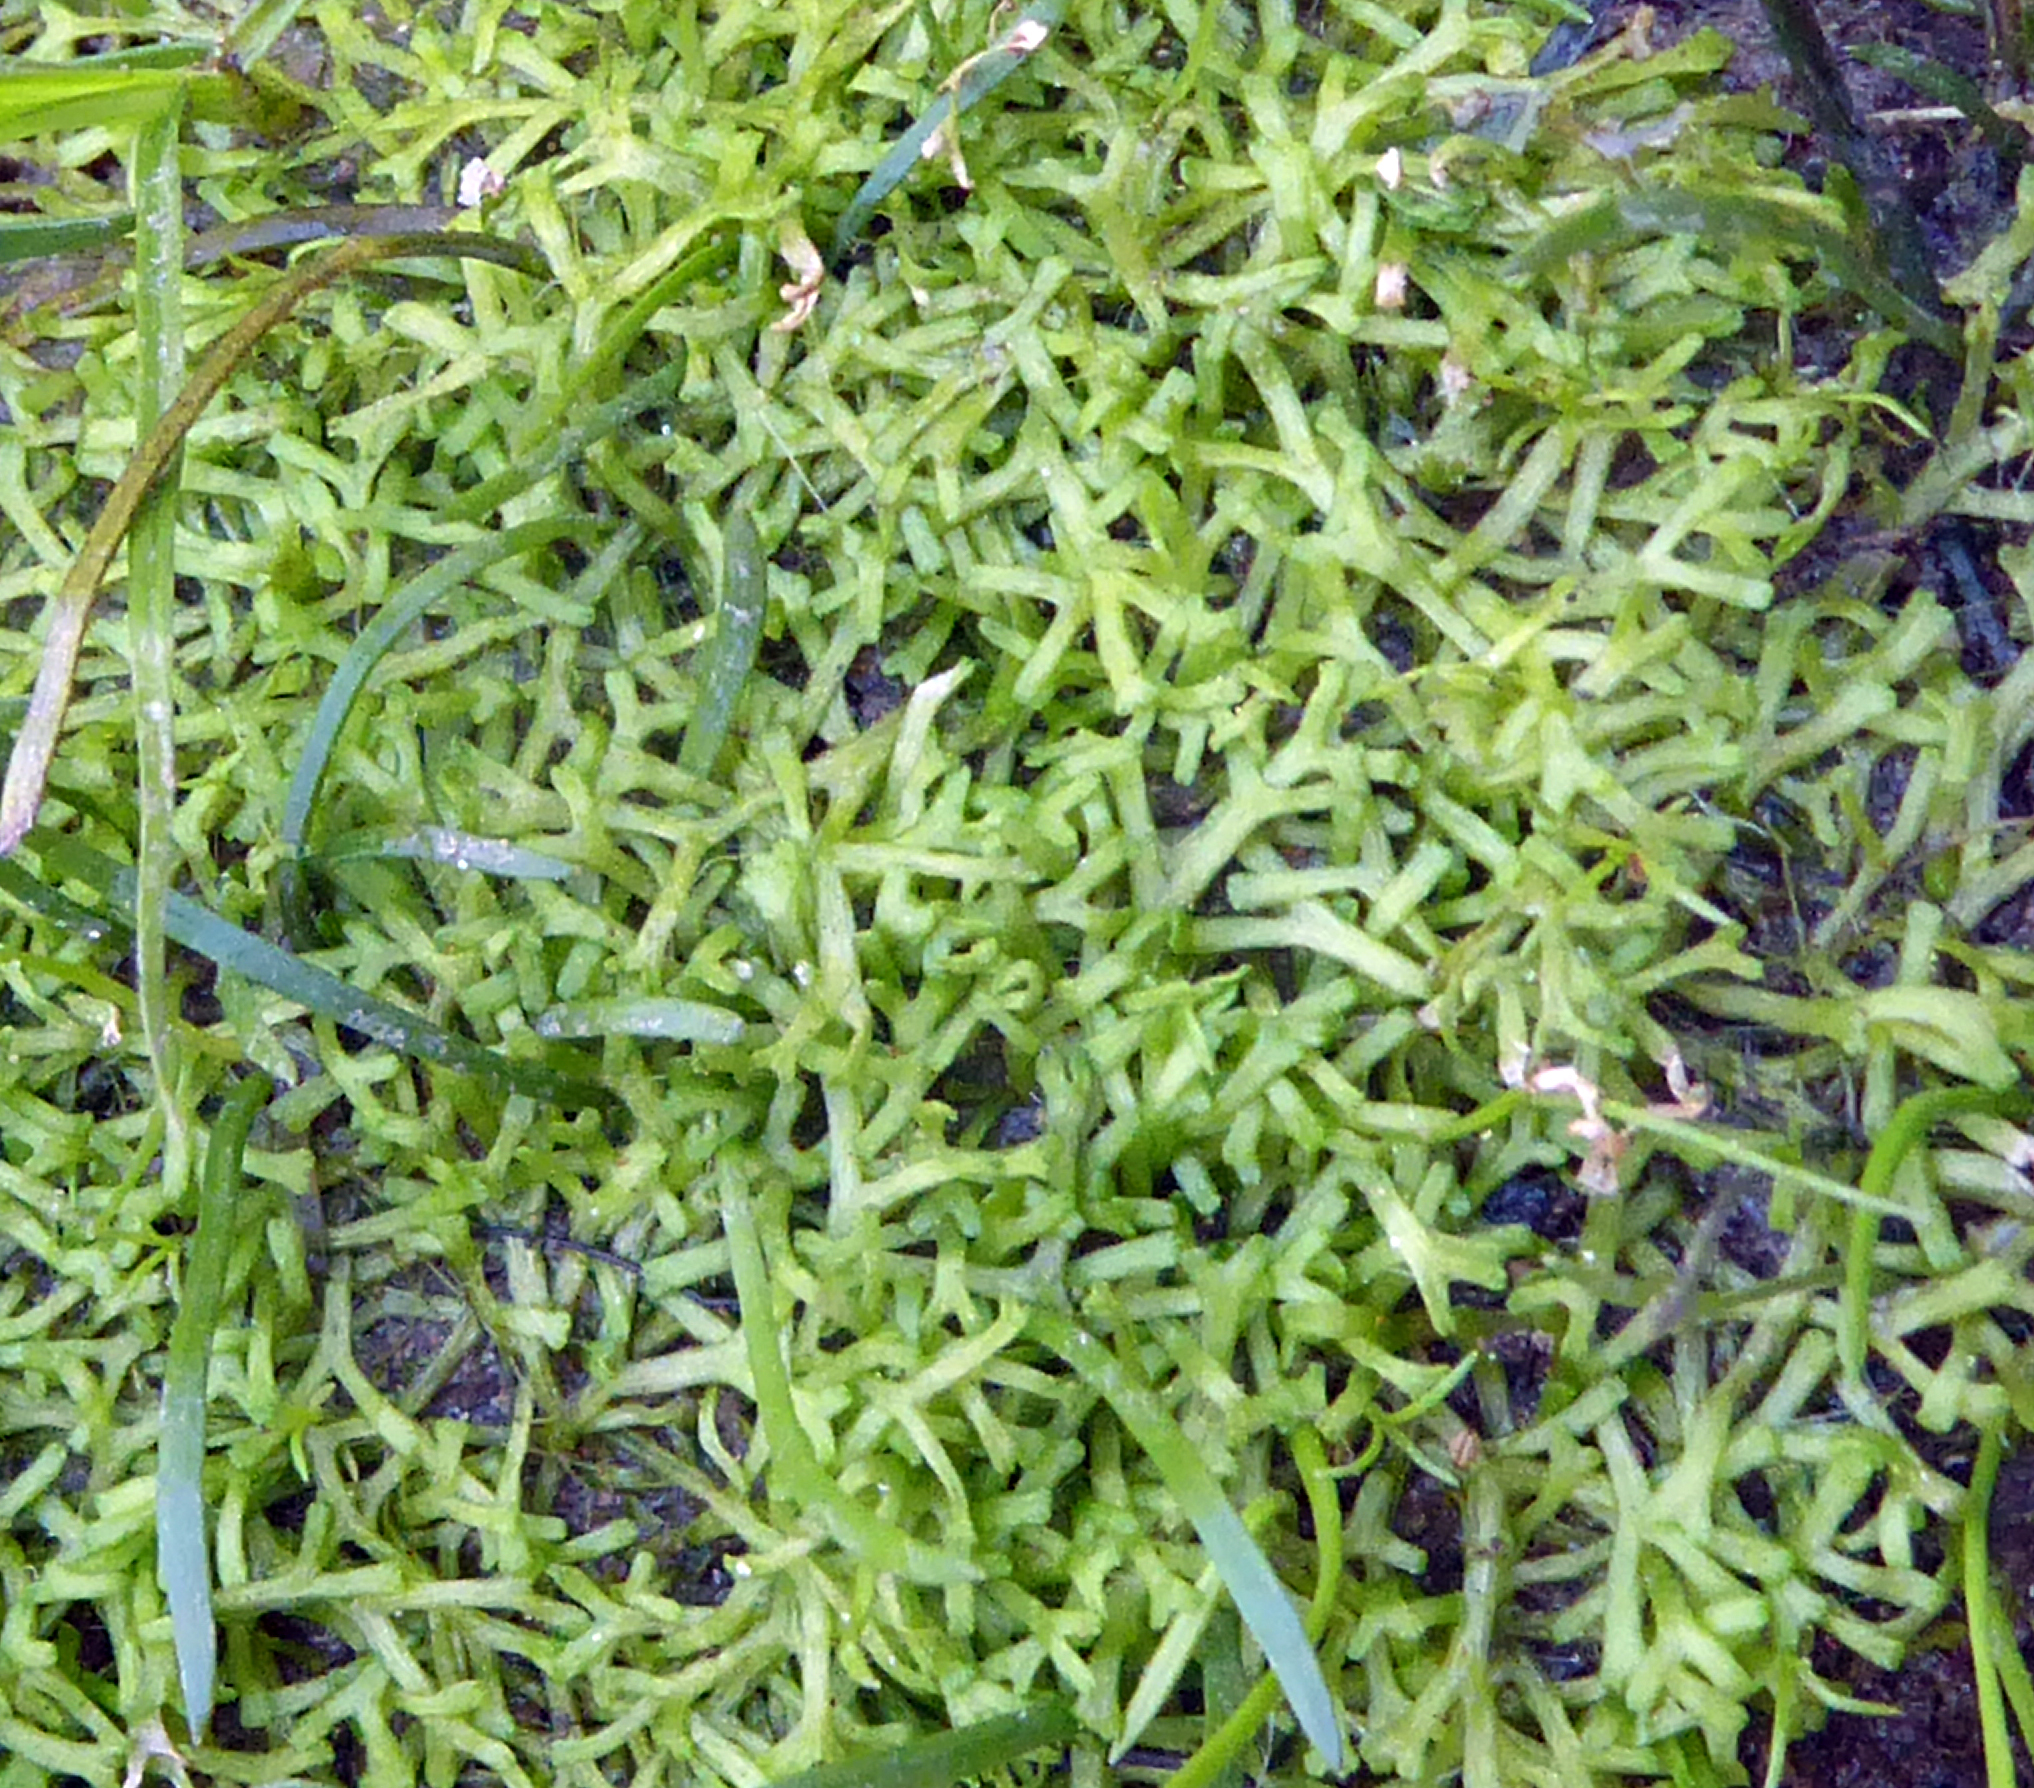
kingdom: Plantae
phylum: Marchantiophyta
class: Marchantiopsida
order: Marchantiales
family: Ricciaceae
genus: Riccia
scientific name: Riccia fluitans
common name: Floating crystalwort
